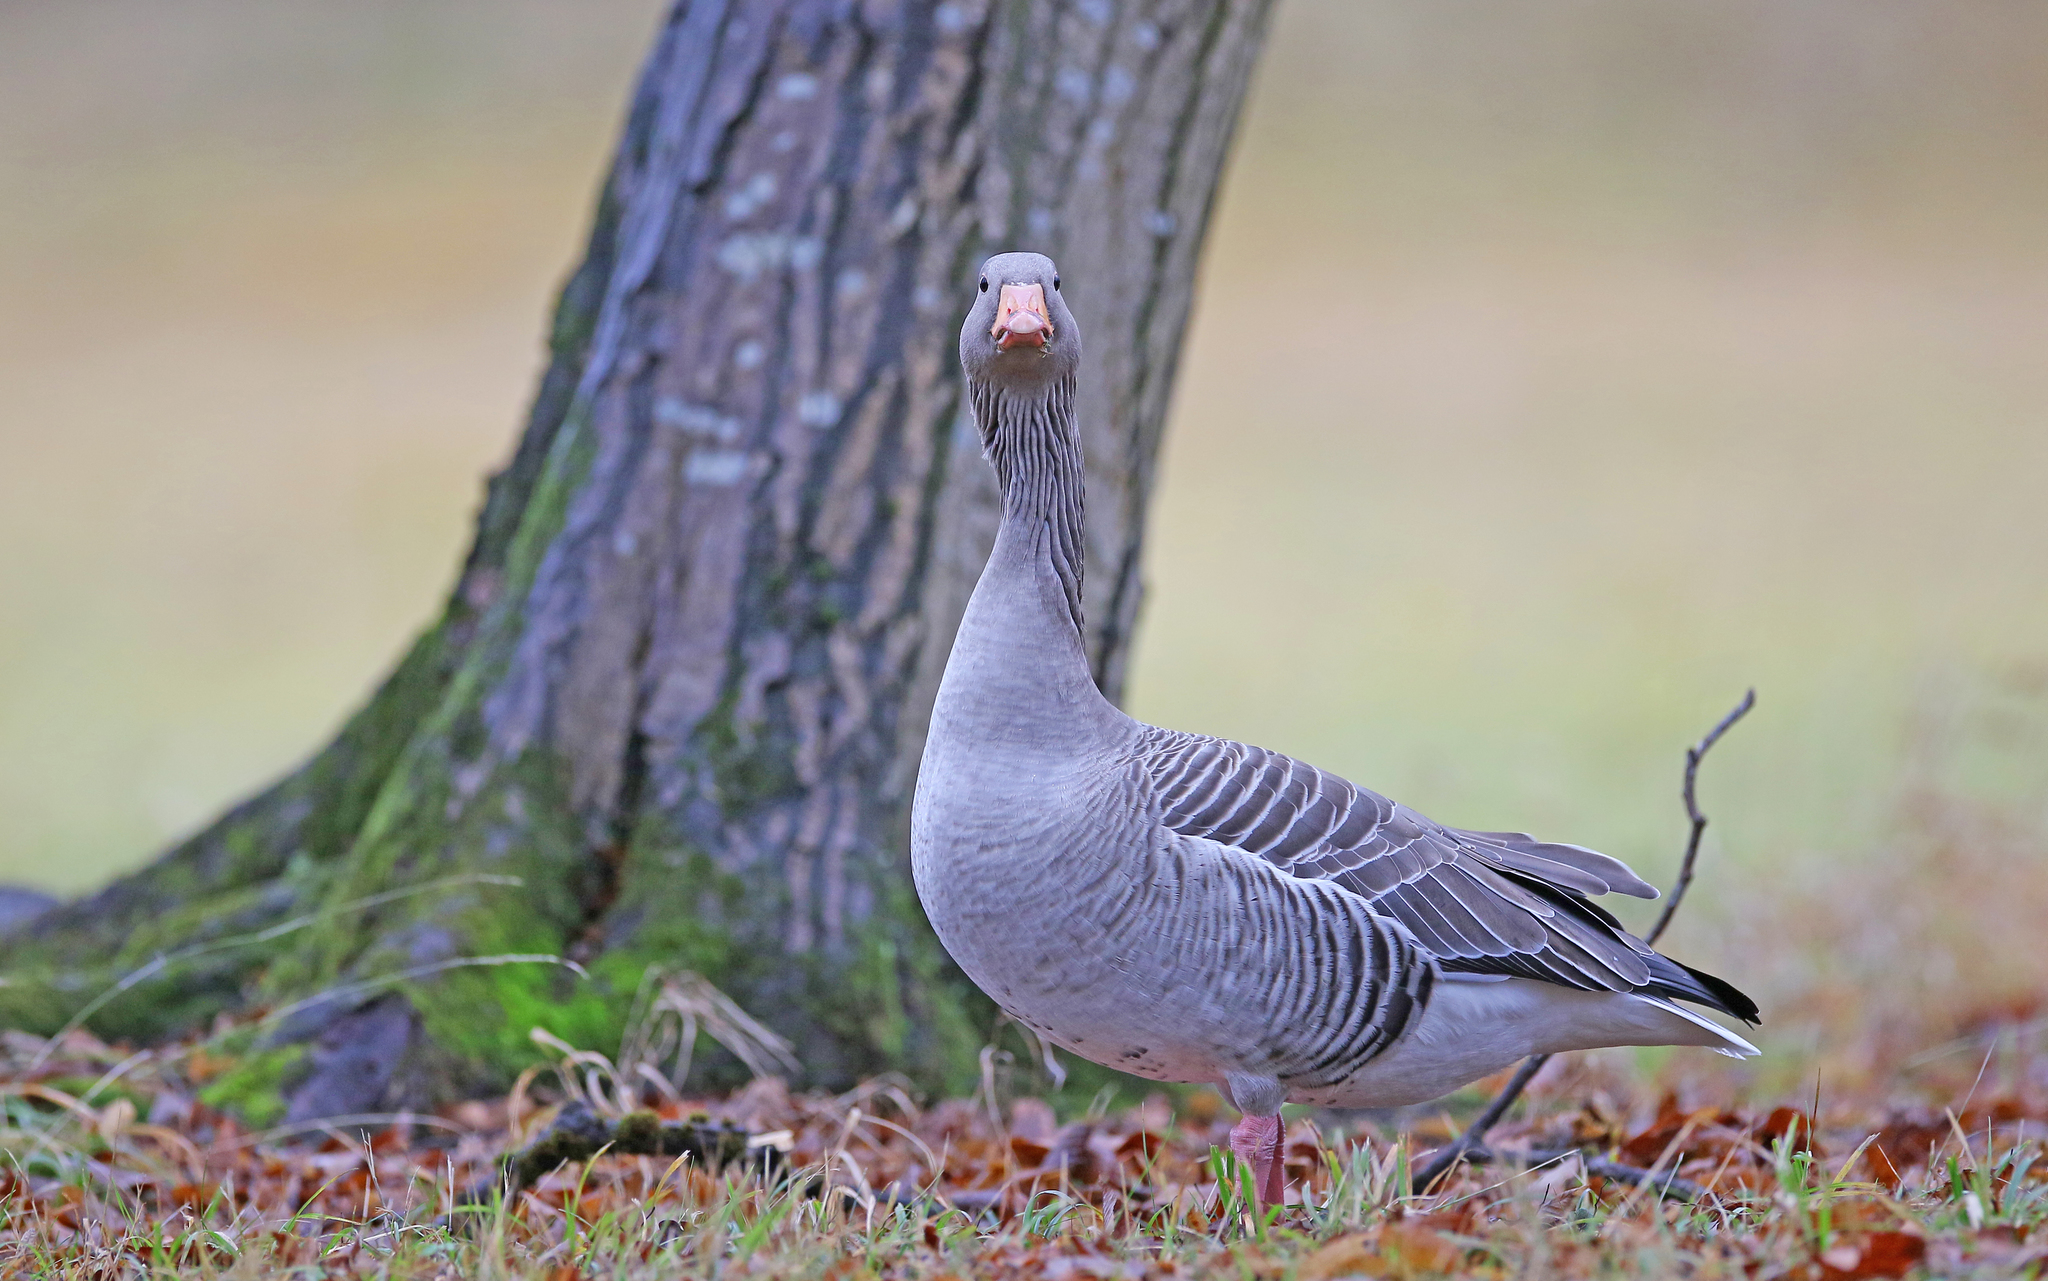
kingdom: Animalia
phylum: Chordata
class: Aves
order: Anseriformes
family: Anatidae
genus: Anser
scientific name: Anser anser
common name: Greylag goose
